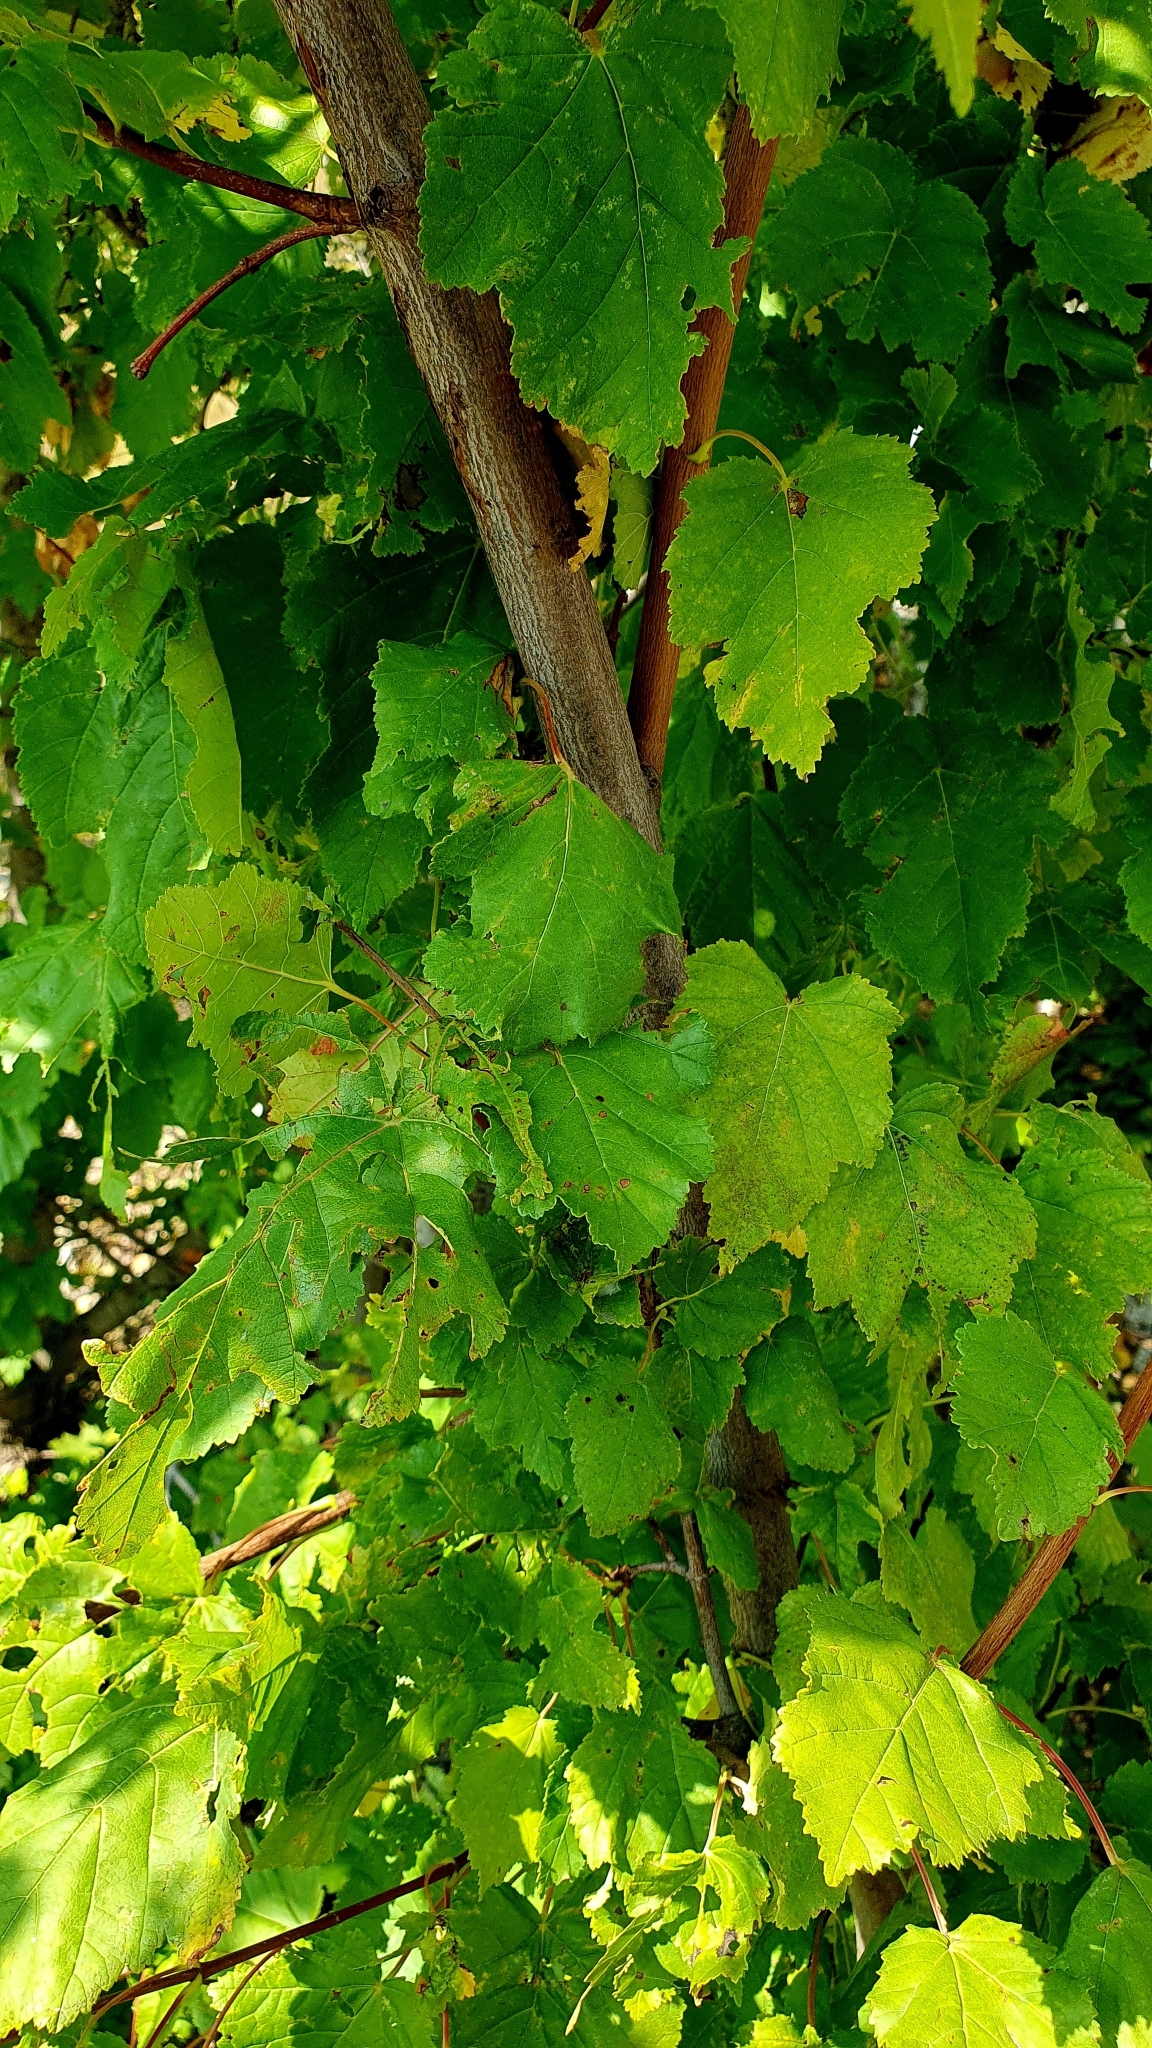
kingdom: Plantae
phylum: Tracheophyta
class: Magnoliopsida
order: Sapindales
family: Sapindaceae
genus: Acer
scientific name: Acer tataricum
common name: Tartar maple
